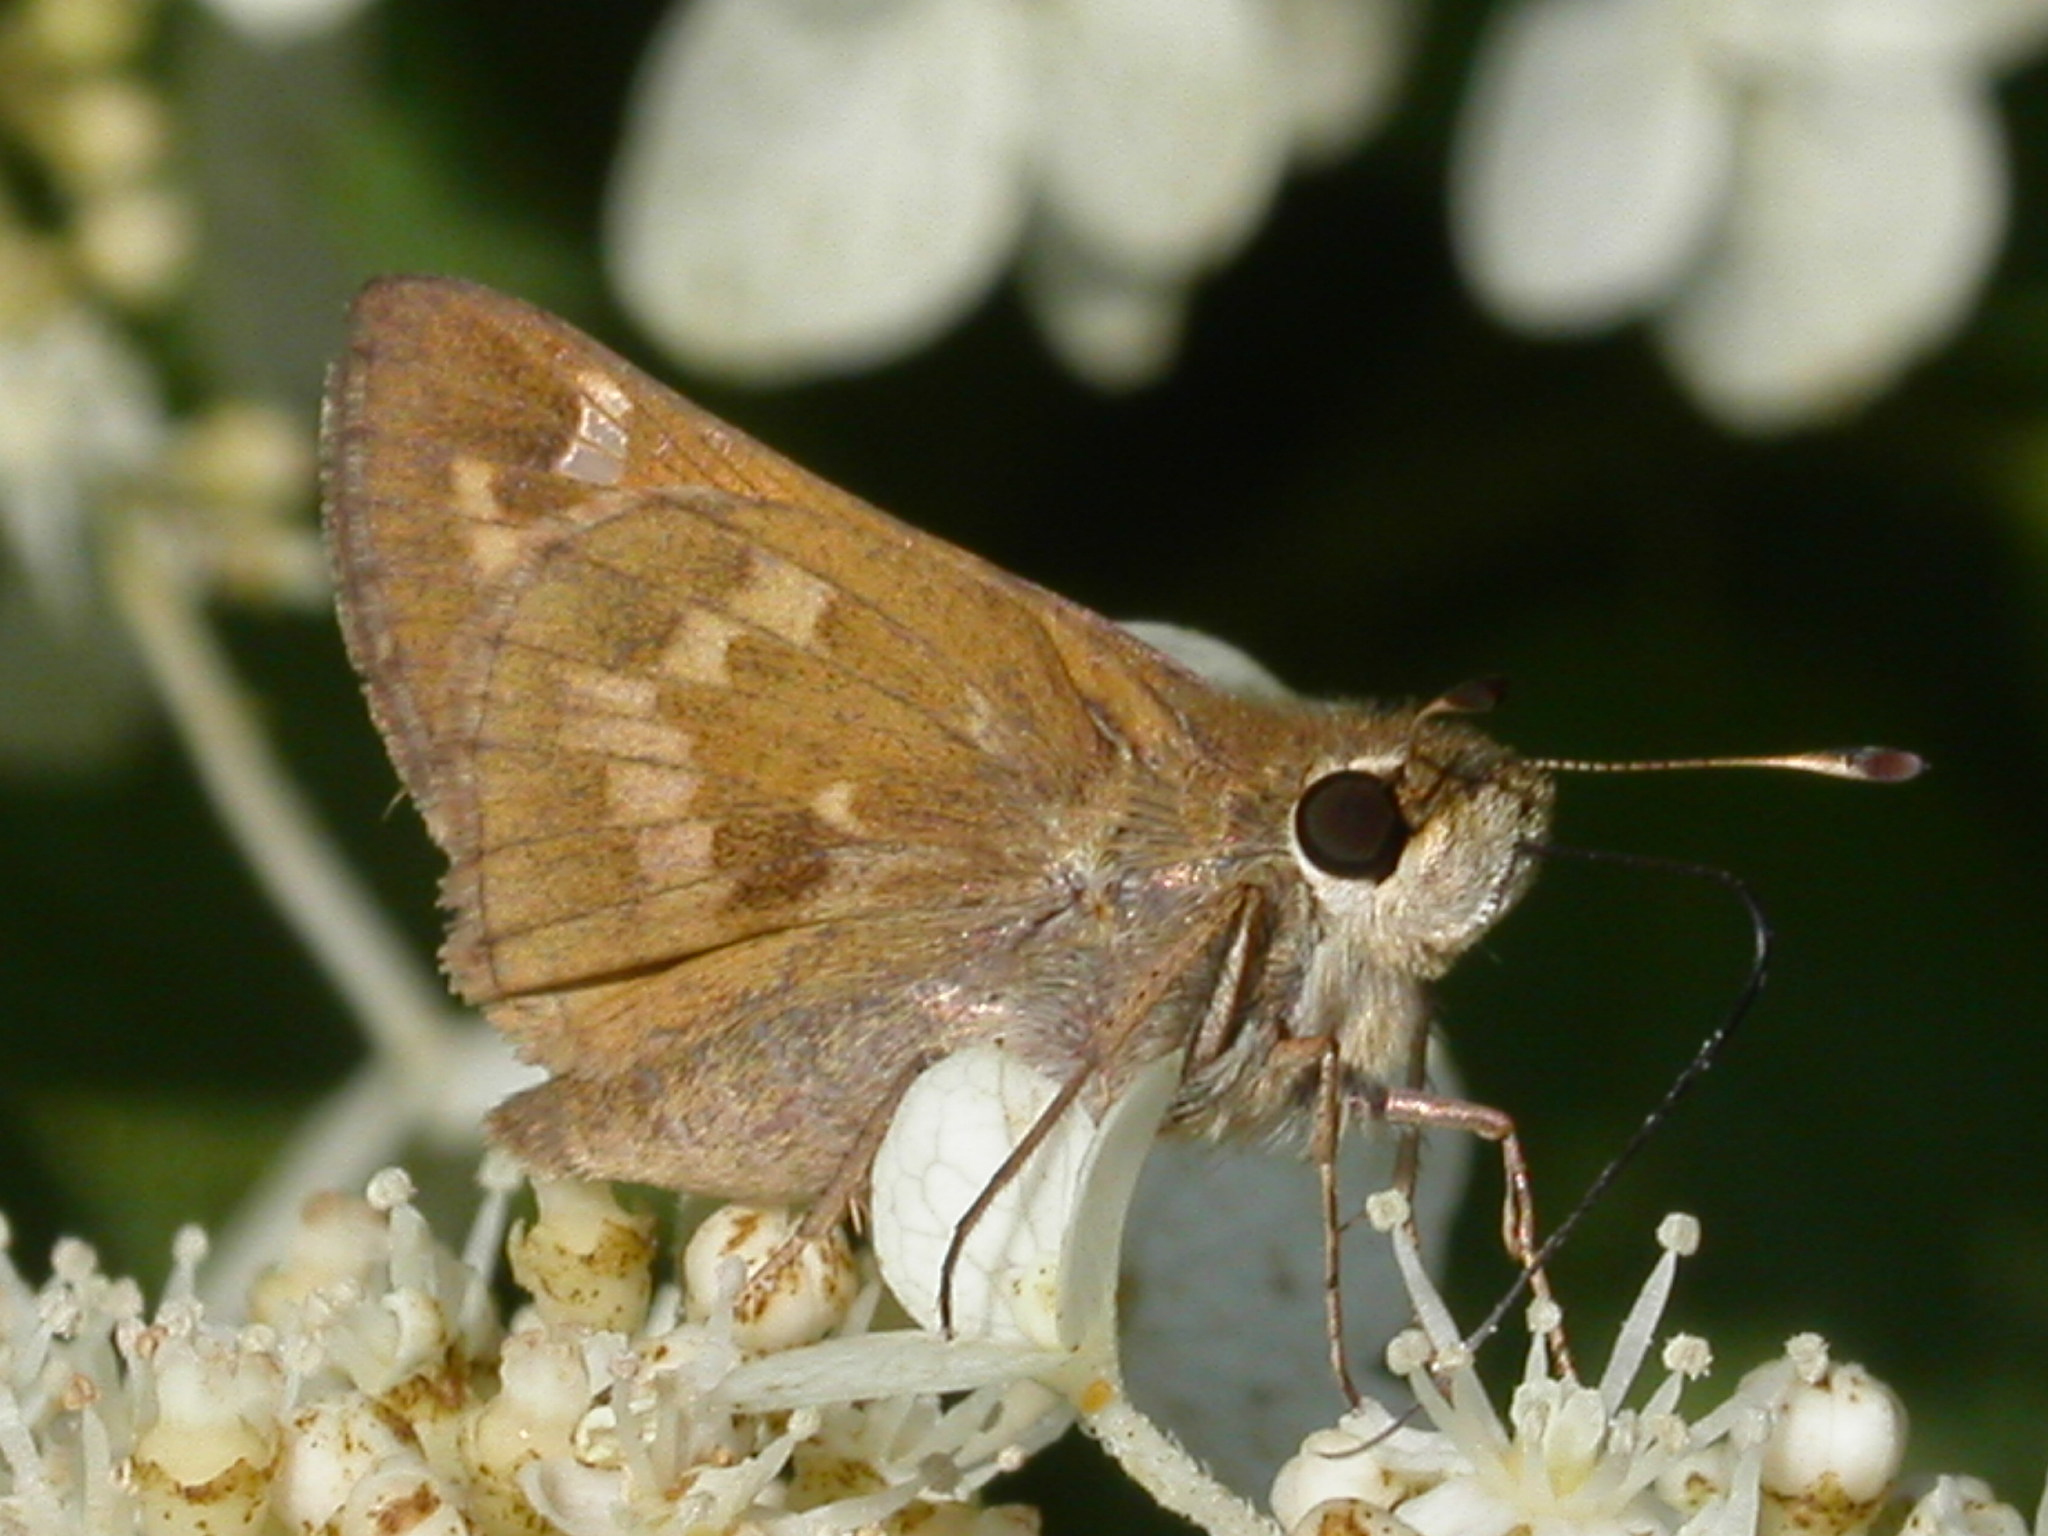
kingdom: Animalia
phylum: Arthropoda
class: Insecta
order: Lepidoptera
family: Hesperiidae
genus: Atalopedes
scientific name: Atalopedes
